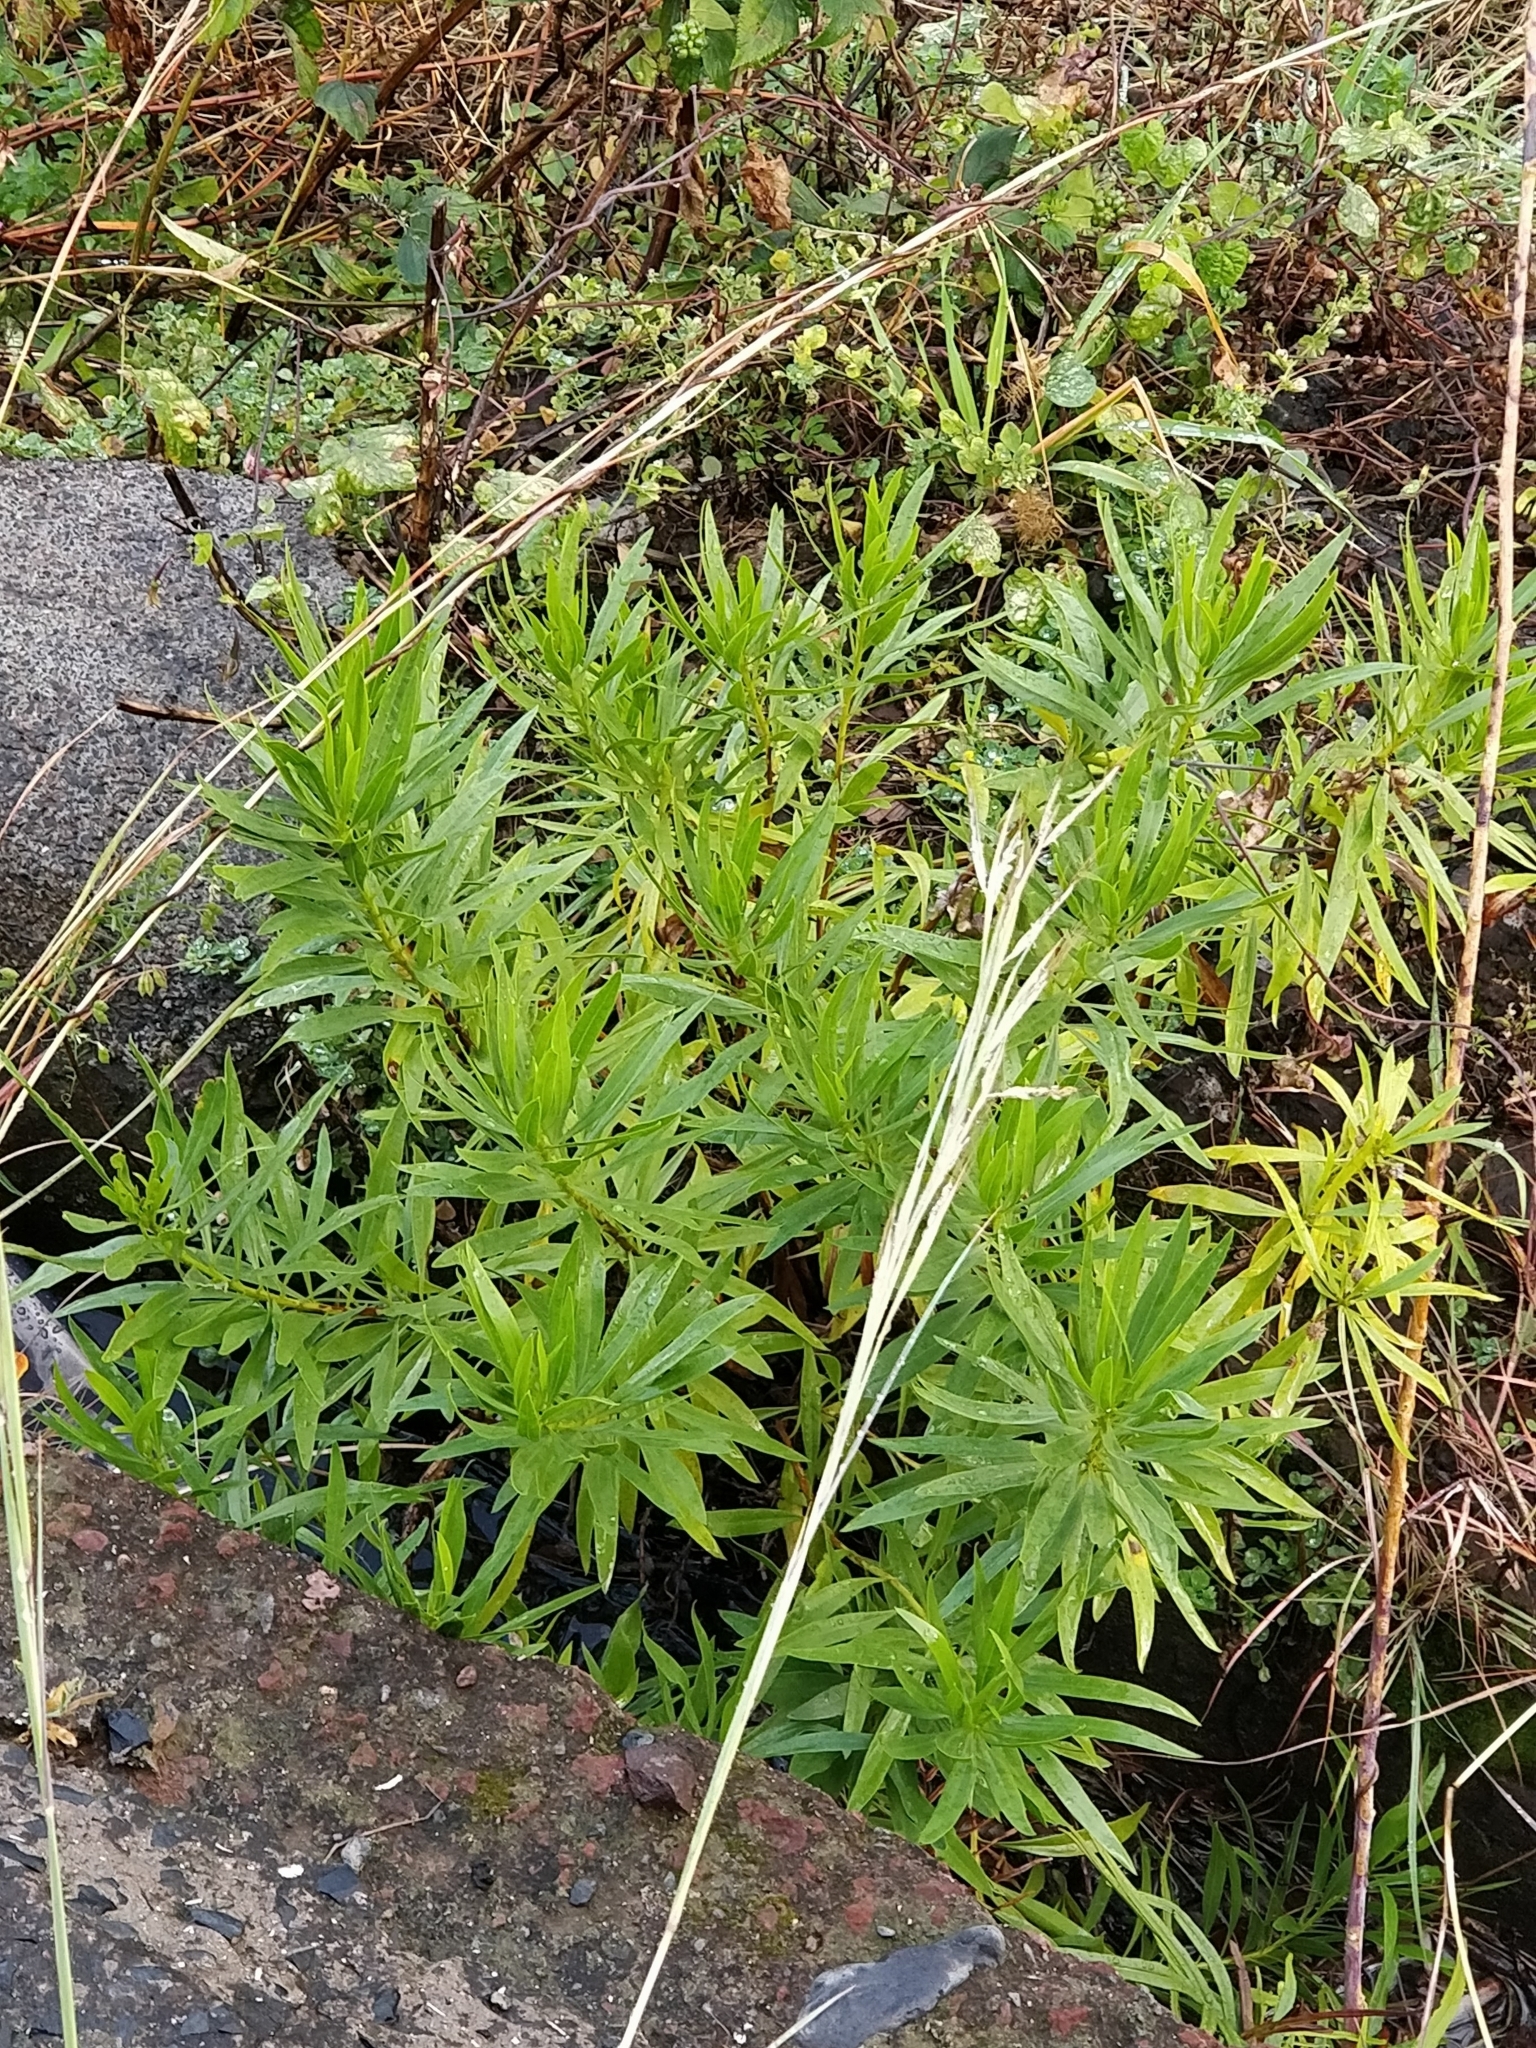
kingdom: Plantae
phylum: Tracheophyta
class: Magnoliopsida
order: Lamiales
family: Plantaginaceae
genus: Globularia
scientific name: Globularia salicina
